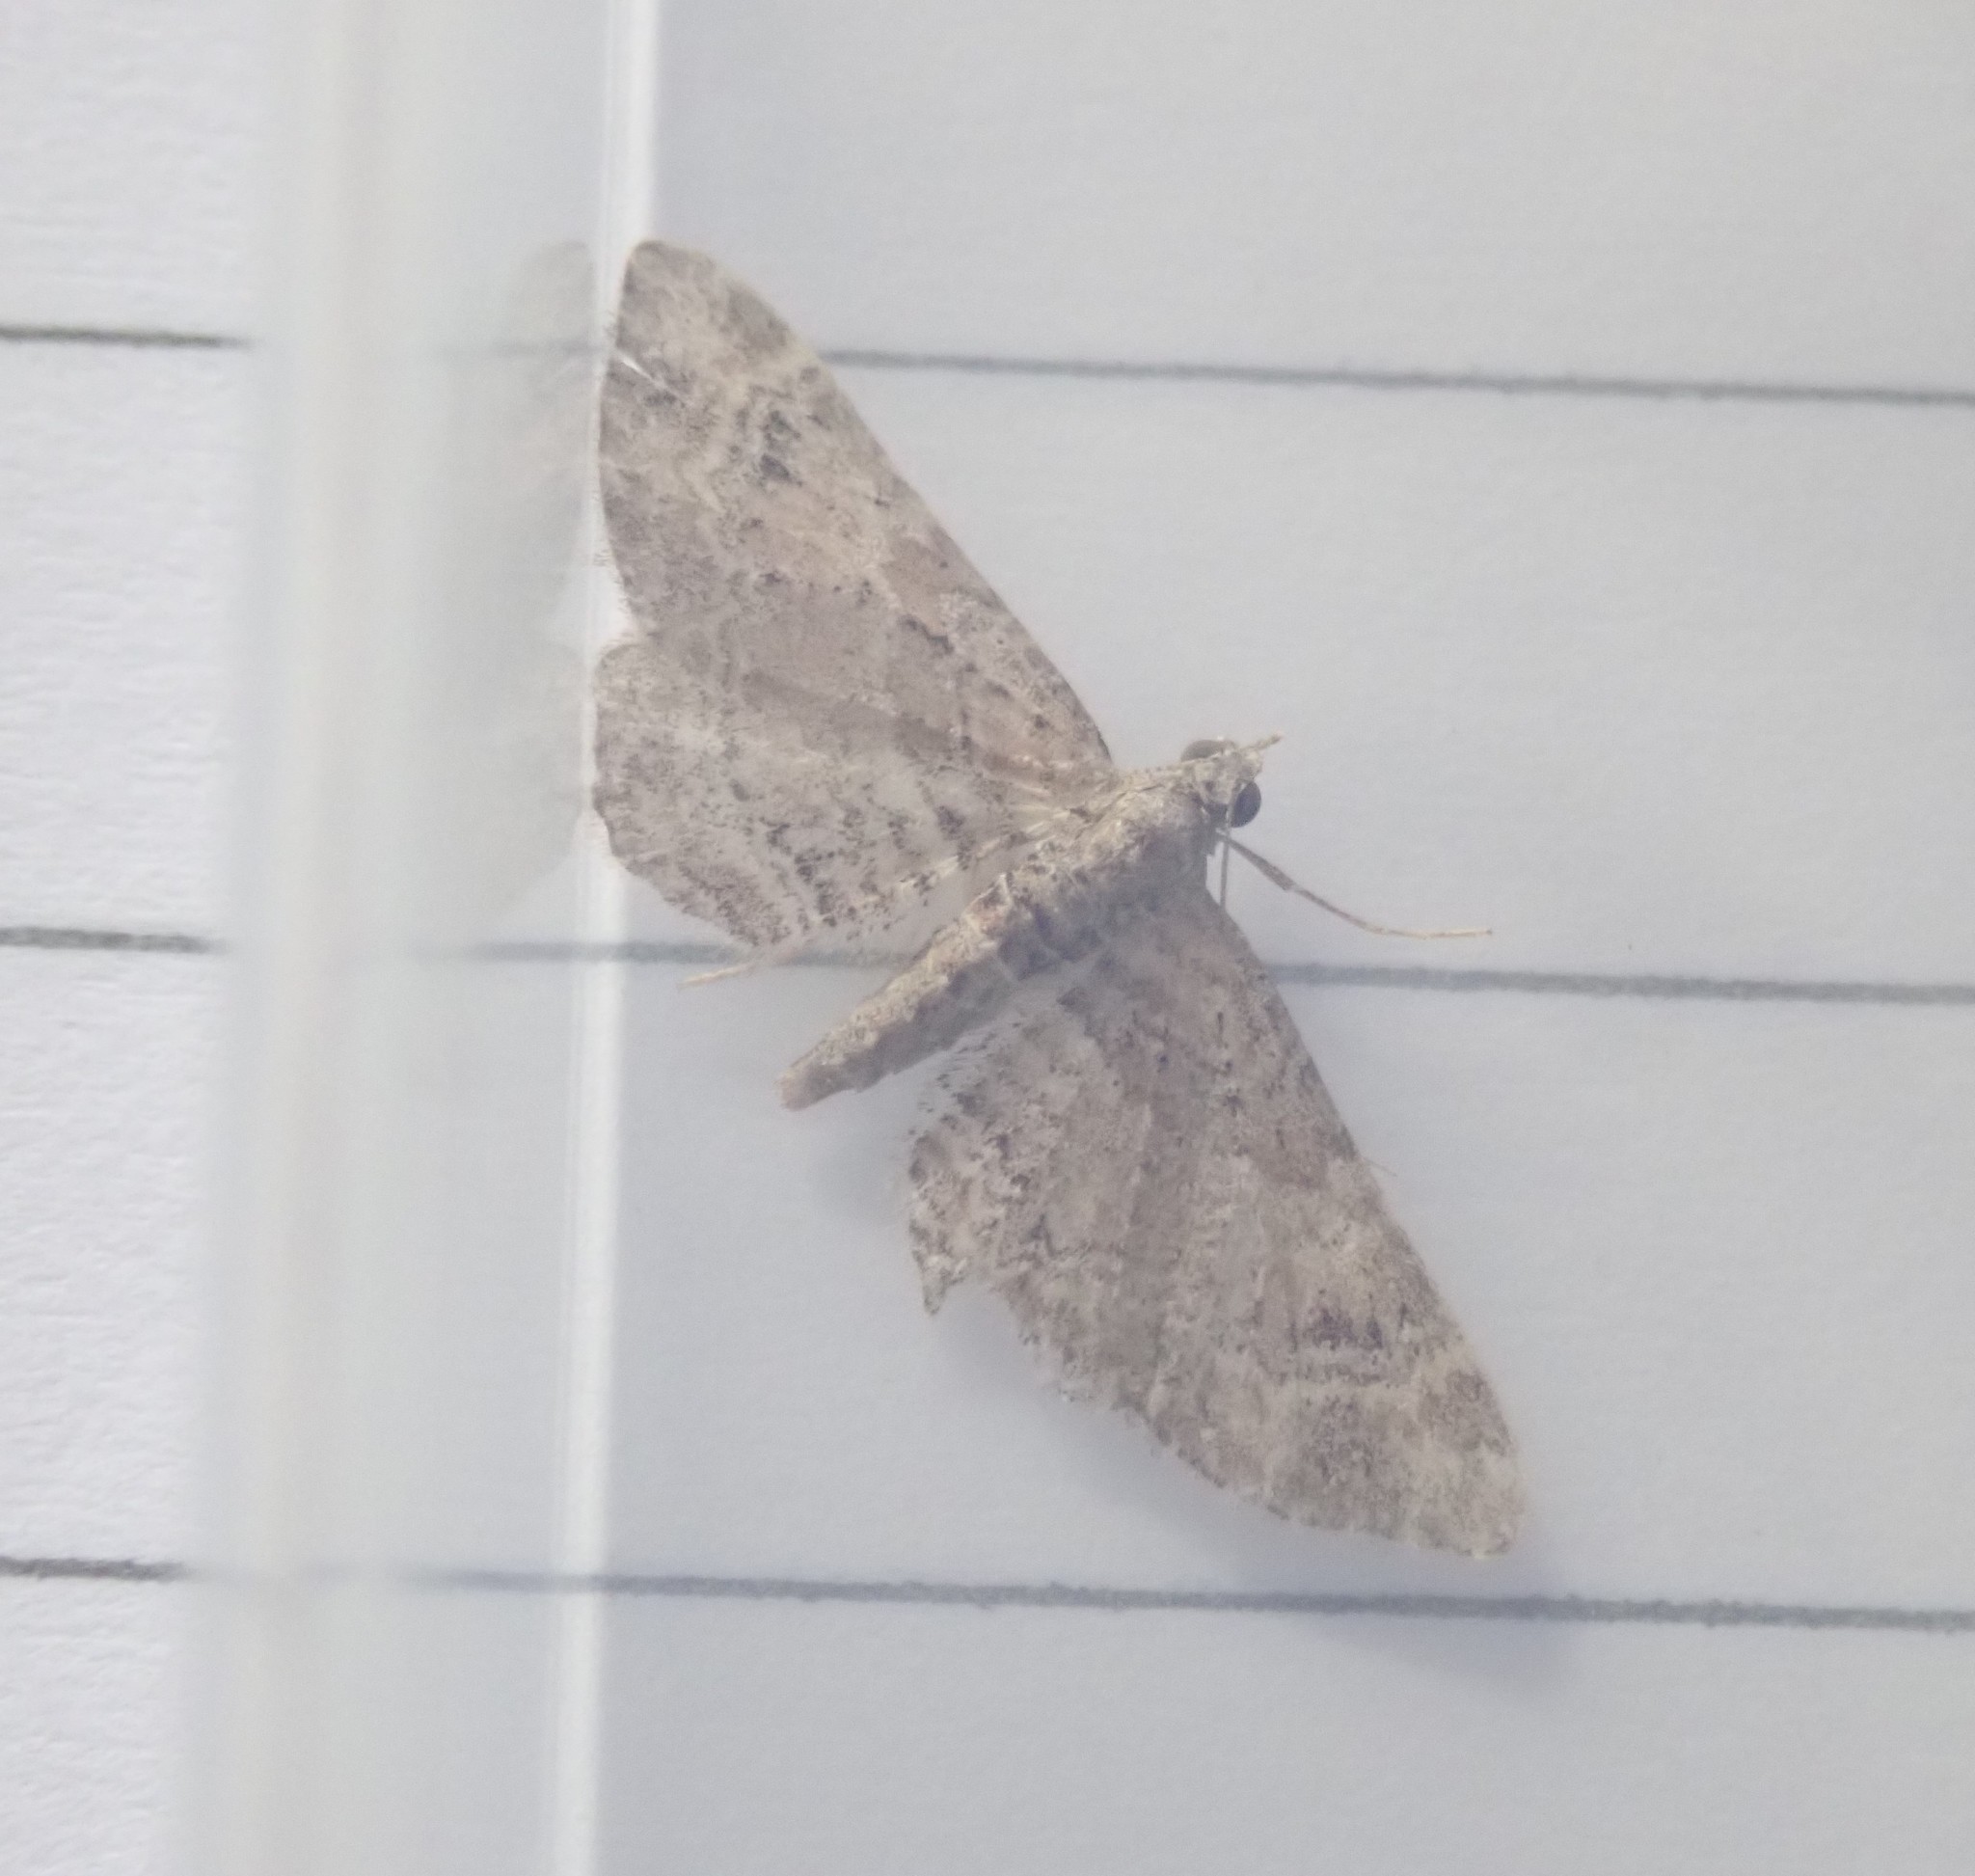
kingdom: Animalia
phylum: Arthropoda
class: Insecta
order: Lepidoptera
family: Geometridae
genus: Gymnoscelis
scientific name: Gymnoscelis rufifasciata
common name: Double-striped pug
